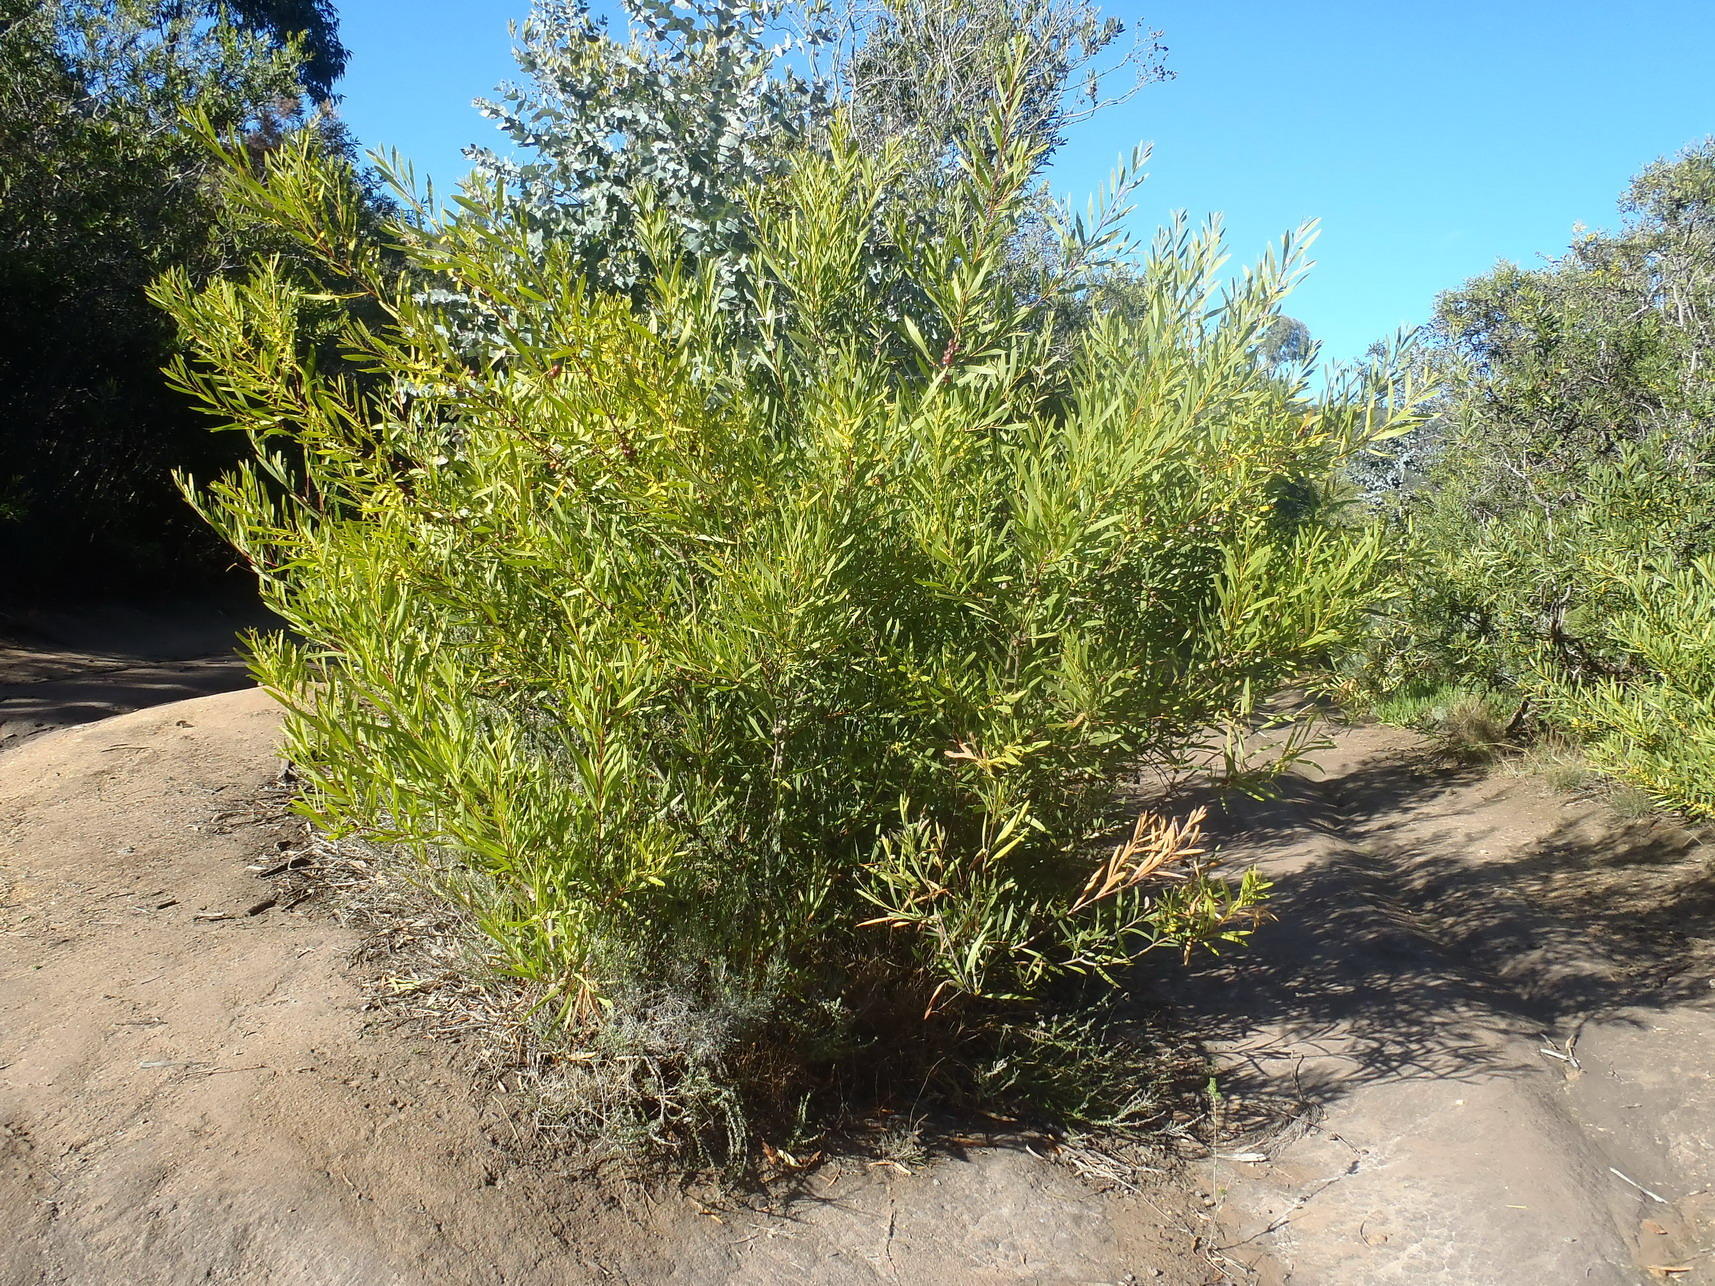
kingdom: Plantae
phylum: Tracheophyta
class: Magnoliopsida
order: Fabales
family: Fabaceae
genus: Acacia
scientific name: Acacia longifolia
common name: Sydney golden wattle
